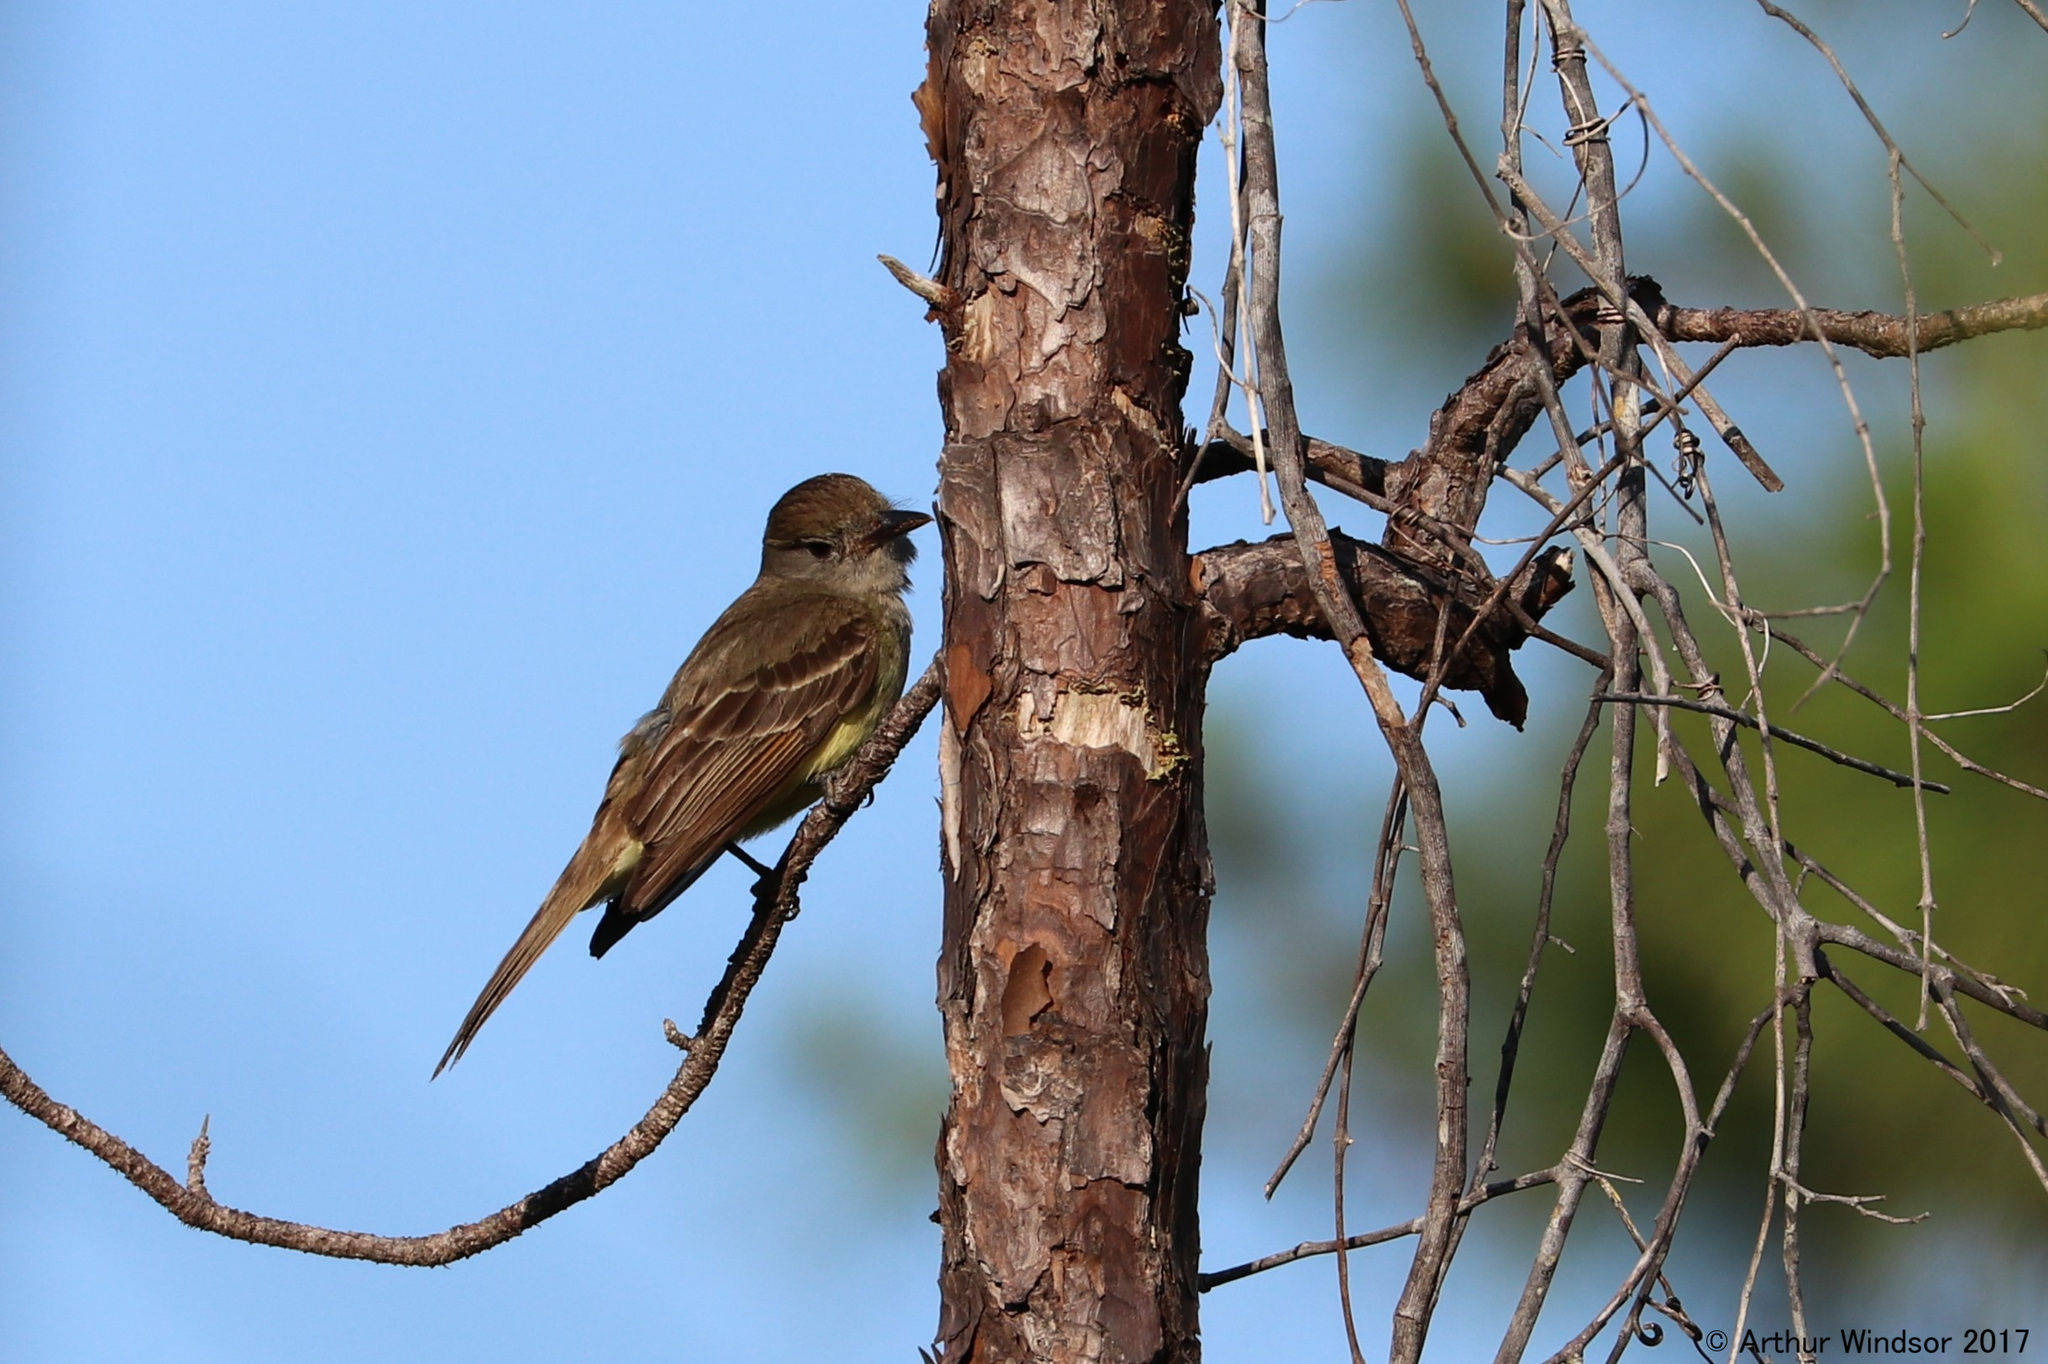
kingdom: Animalia
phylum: Chordata
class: Aves
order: Passeriformes
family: Tyrannidae
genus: Myiarchus
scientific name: Myiarchus crinitus
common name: Great crested flycatcher
